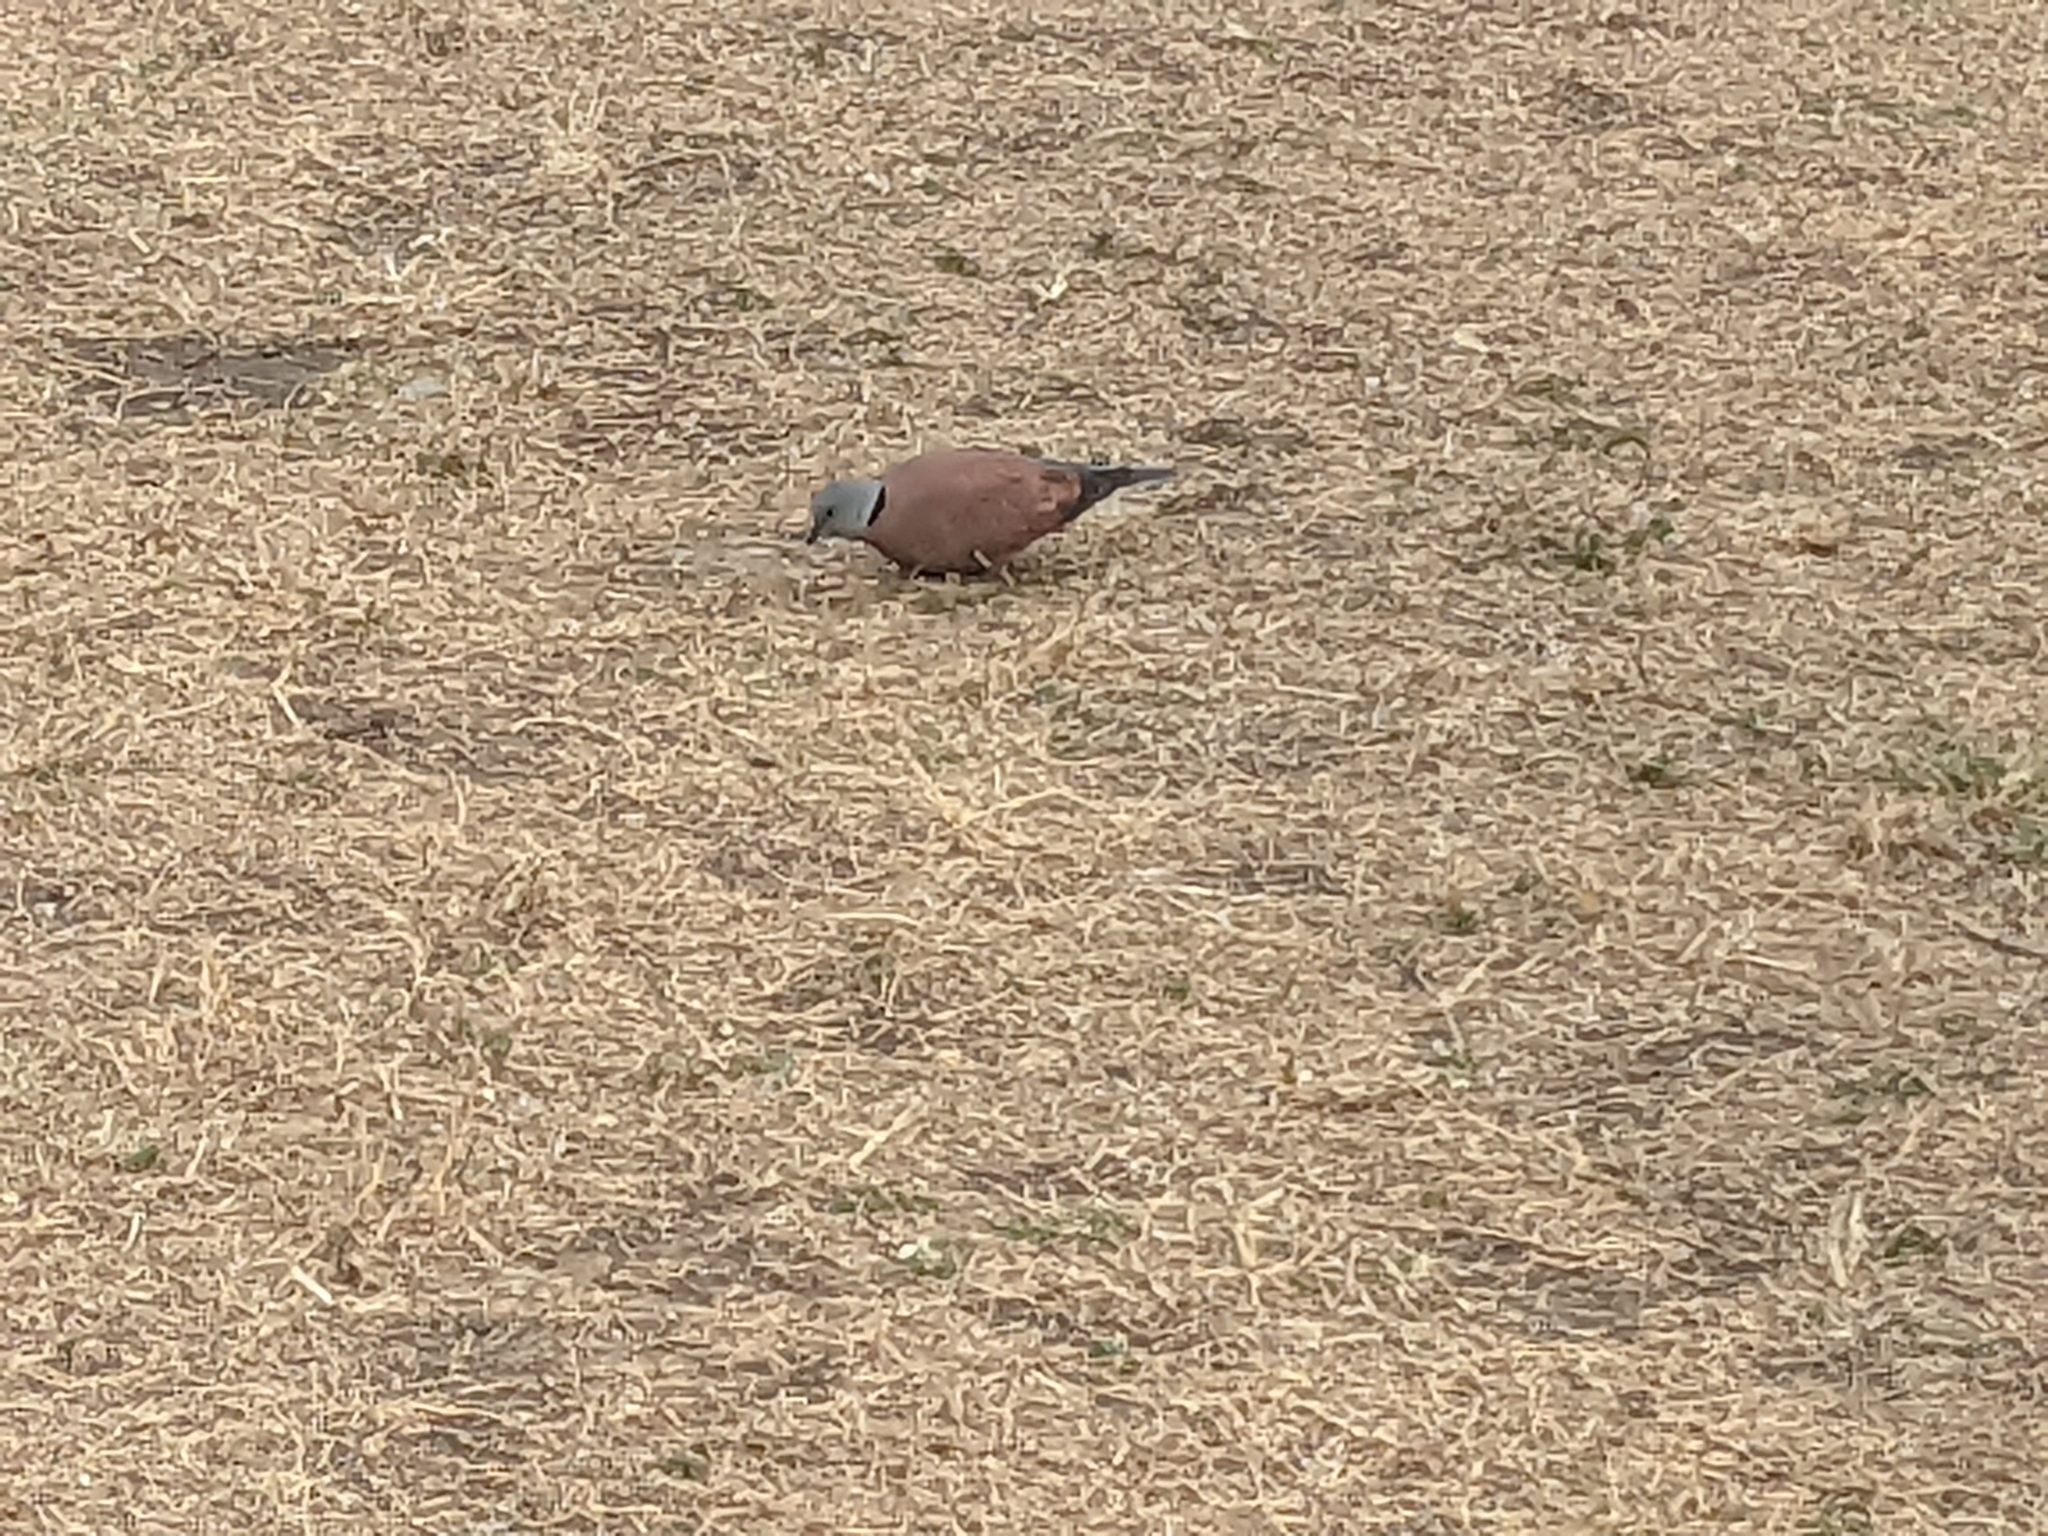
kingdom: Animalia
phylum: Chordata
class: Aves
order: Columbiformes
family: Columbidae
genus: Streptopelia
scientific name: Streptopelia tranquebarica
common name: Red turtle dove
